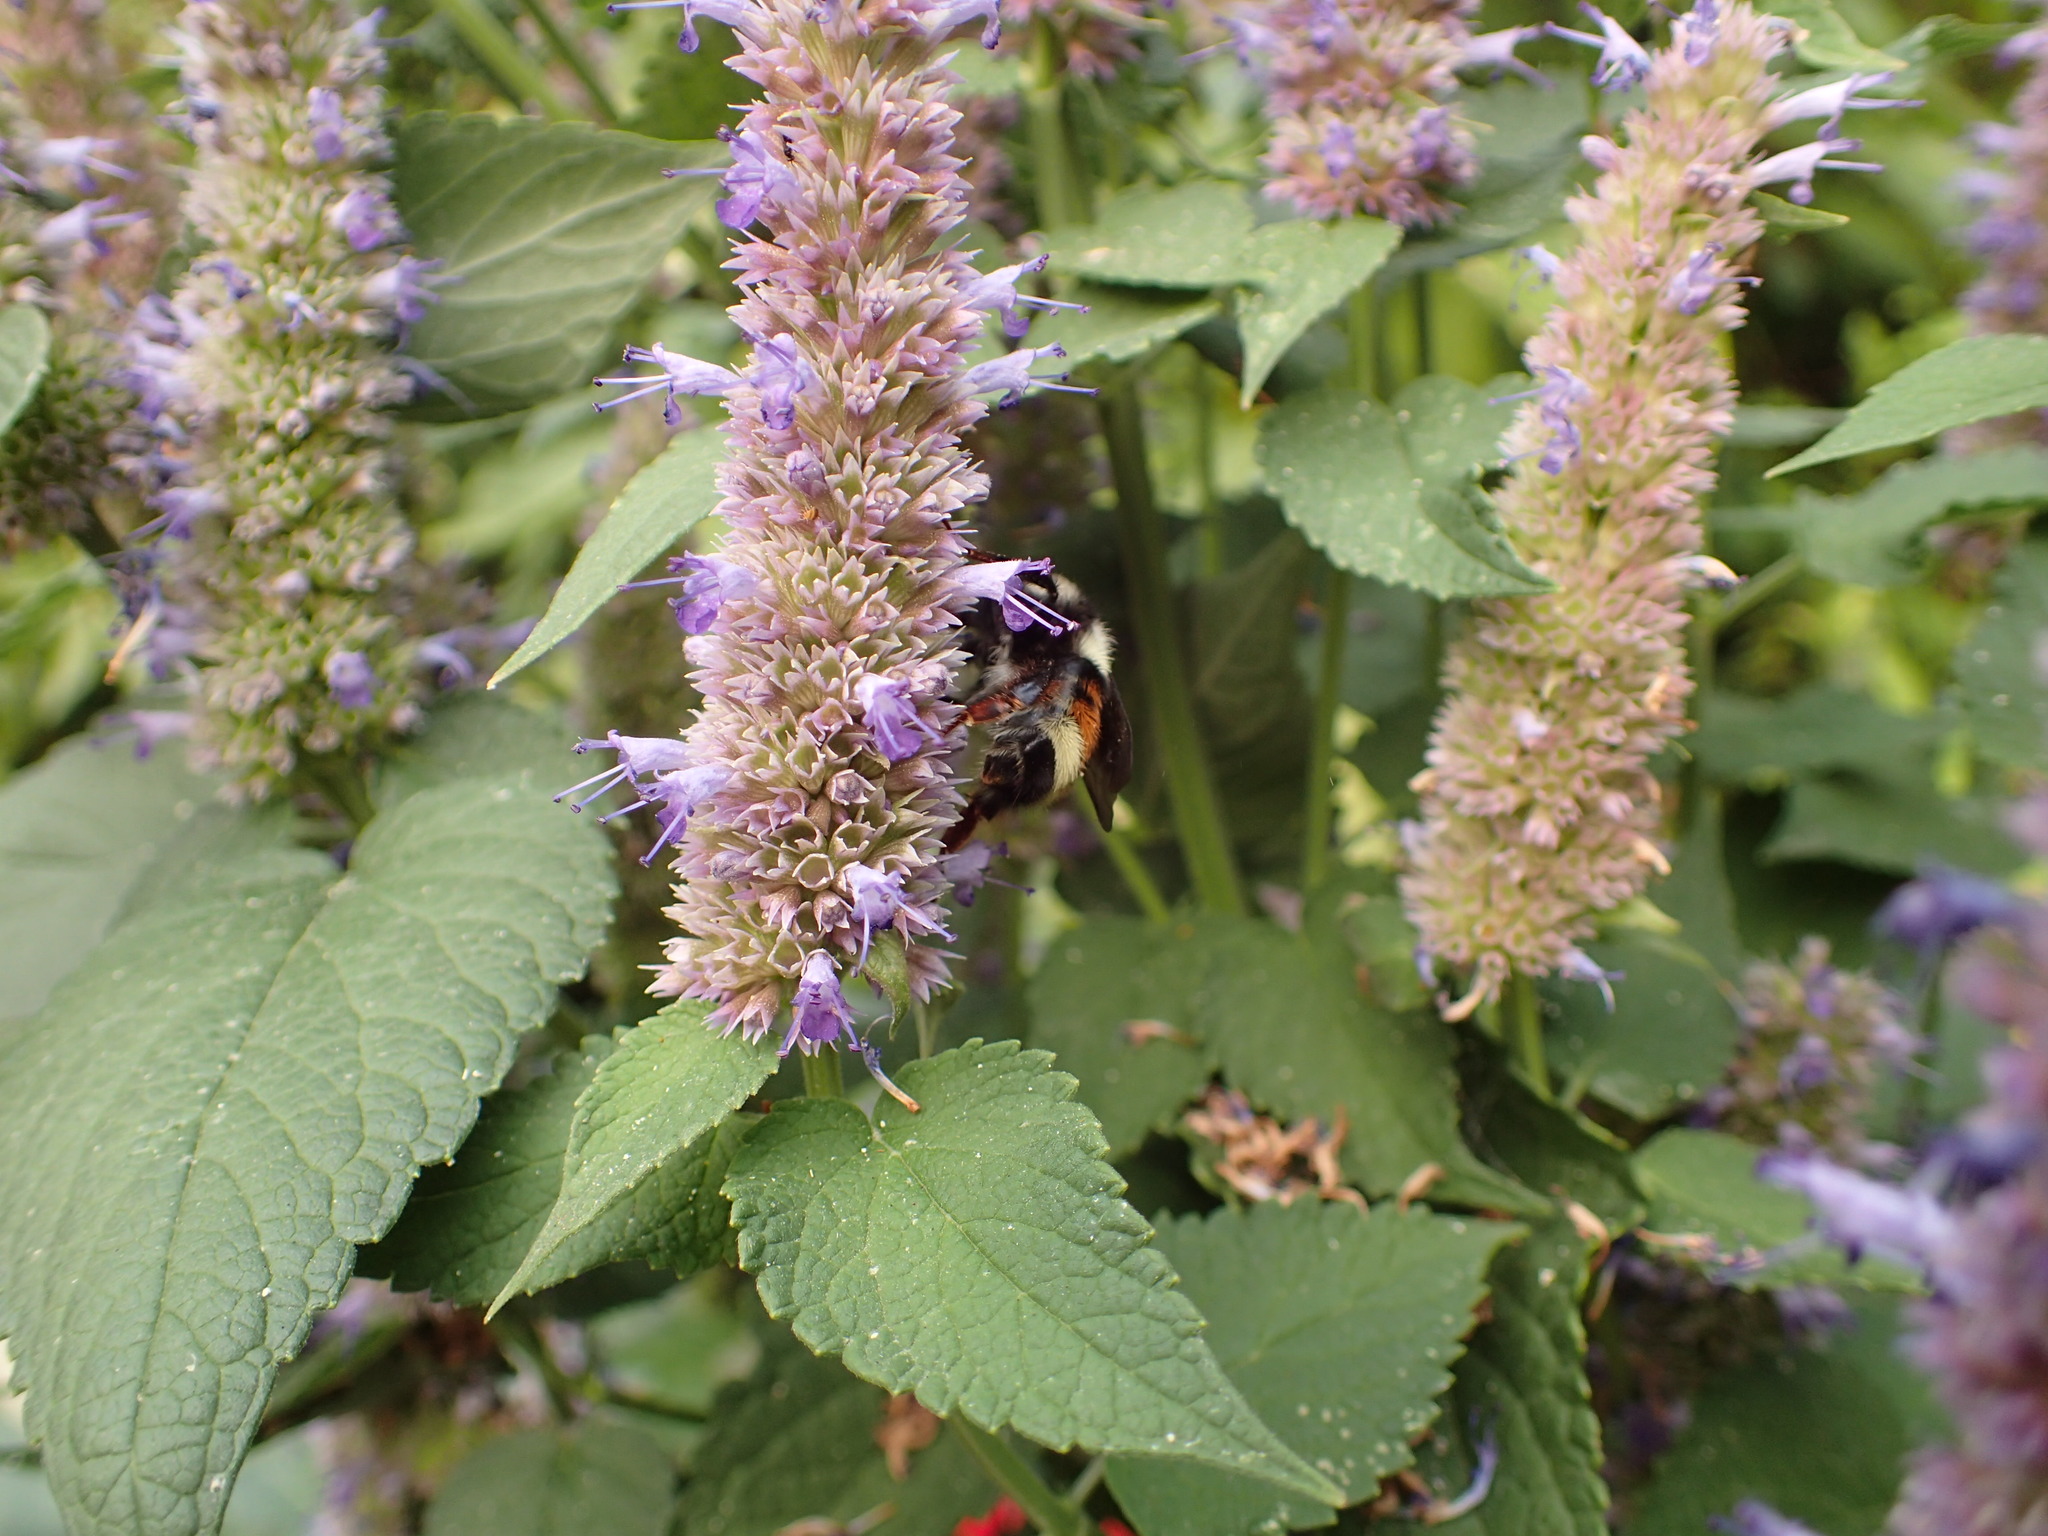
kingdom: Animalia
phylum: Arthropoda
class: Insecta
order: Hymenoptera
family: Apidae
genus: Bombus
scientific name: Bombus vancouverensis
